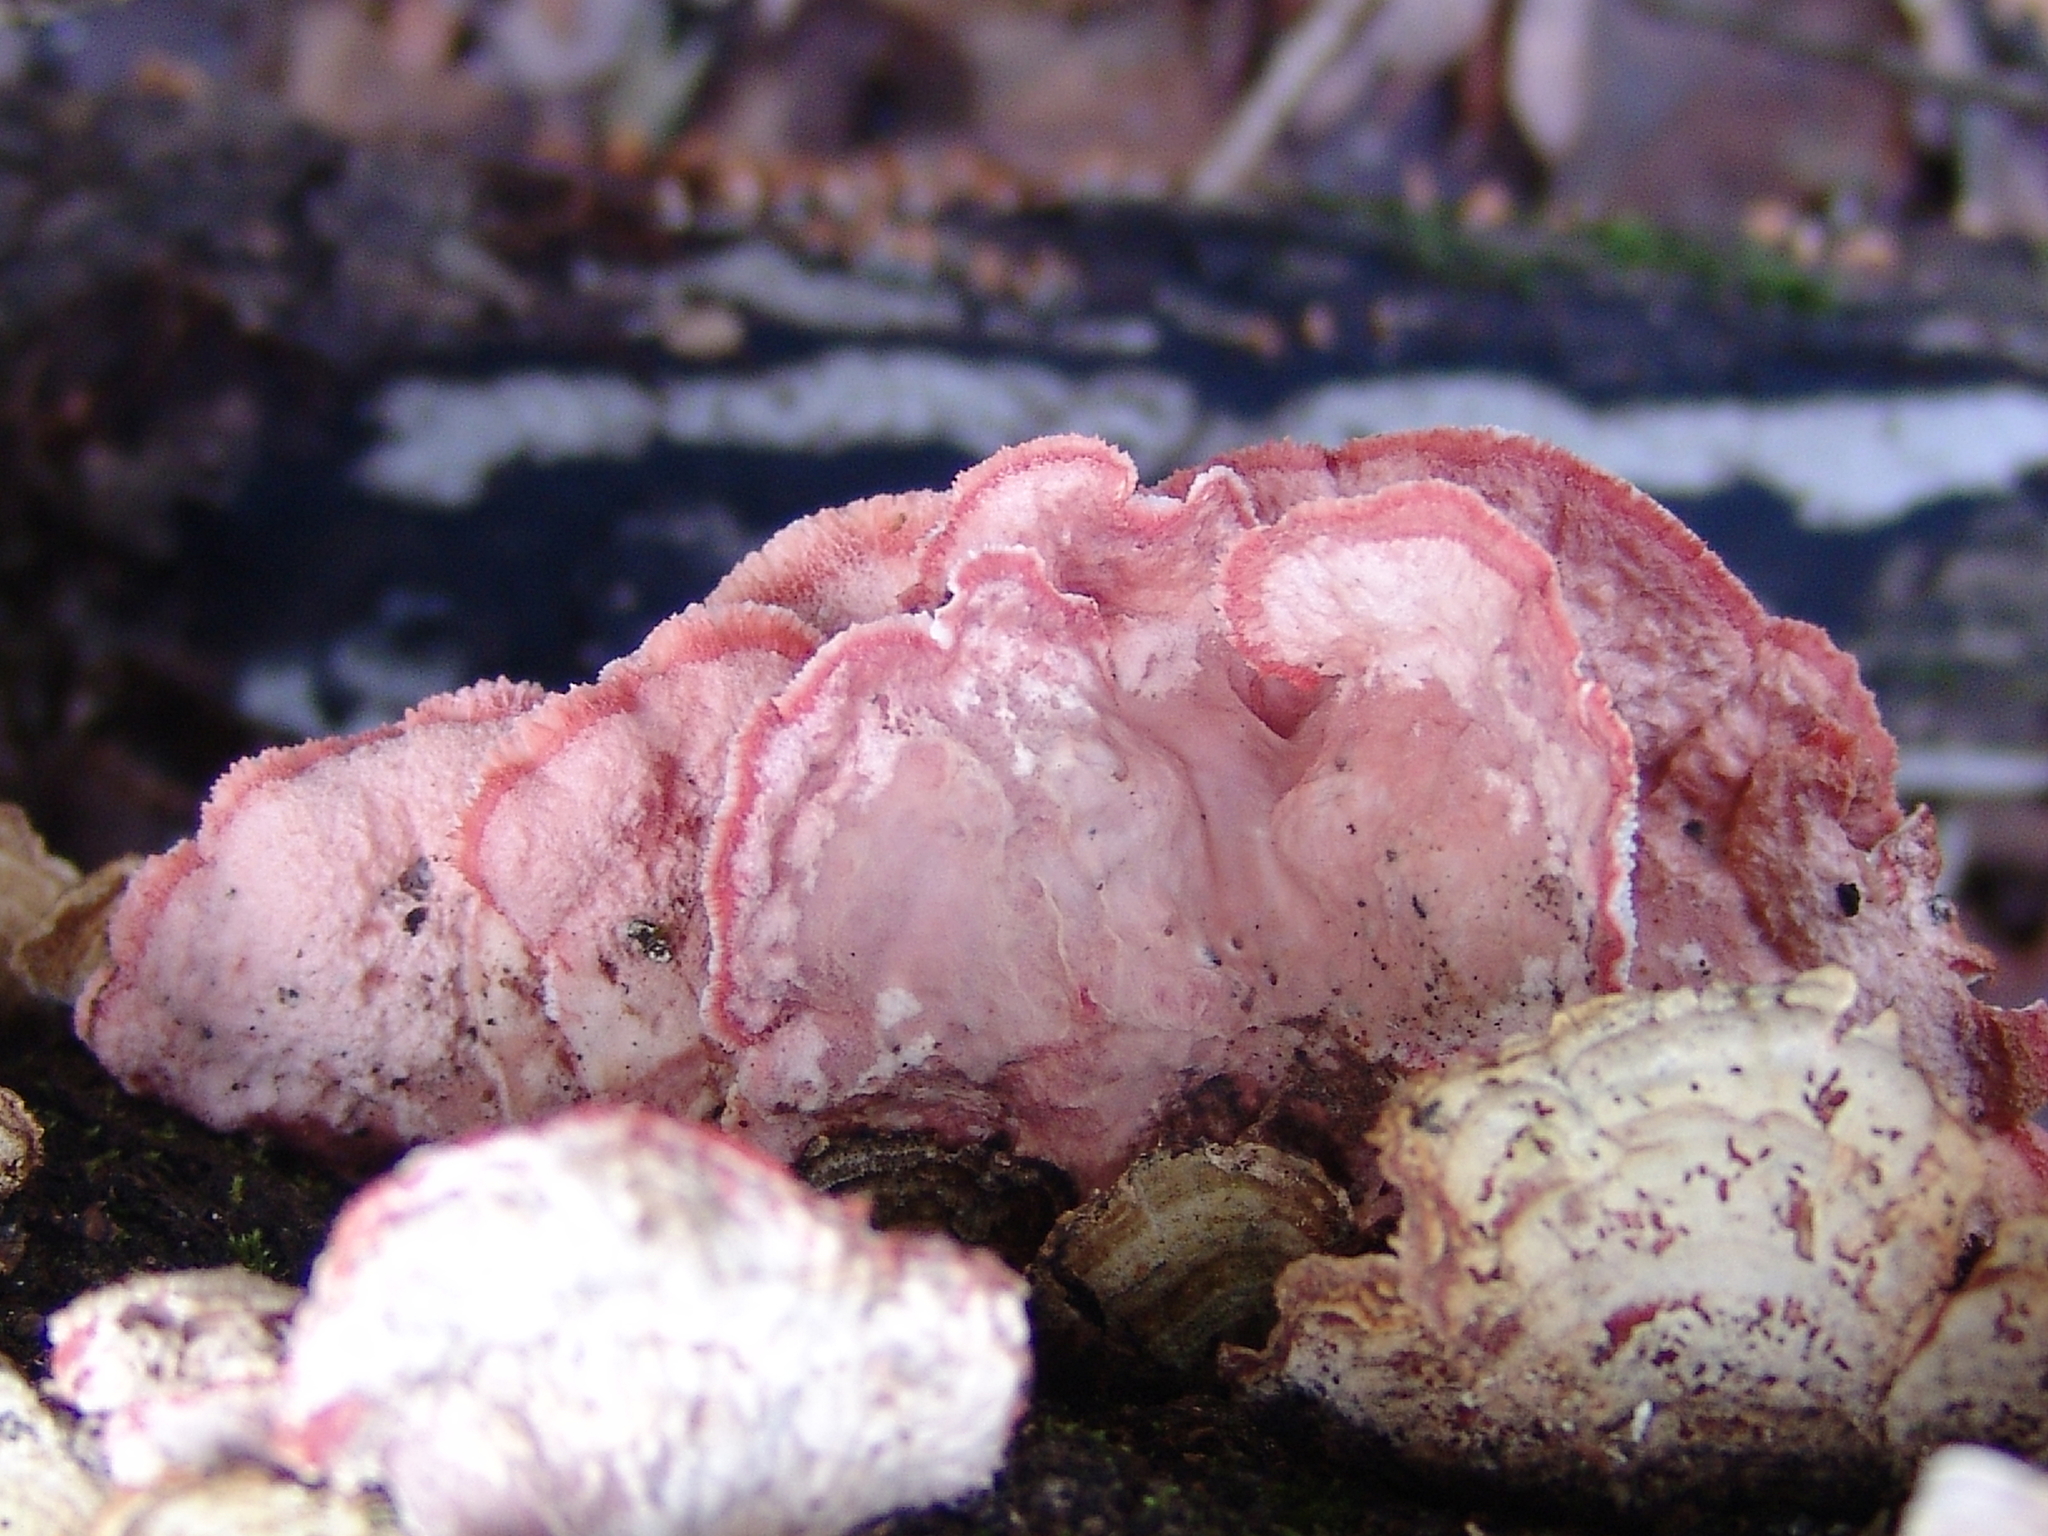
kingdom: Fungi
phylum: Basidiomycota
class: Agaricomycetes
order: Polyporales
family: Irpicaceae
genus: Byssomerulius
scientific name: Byssomerulius incarnatus
